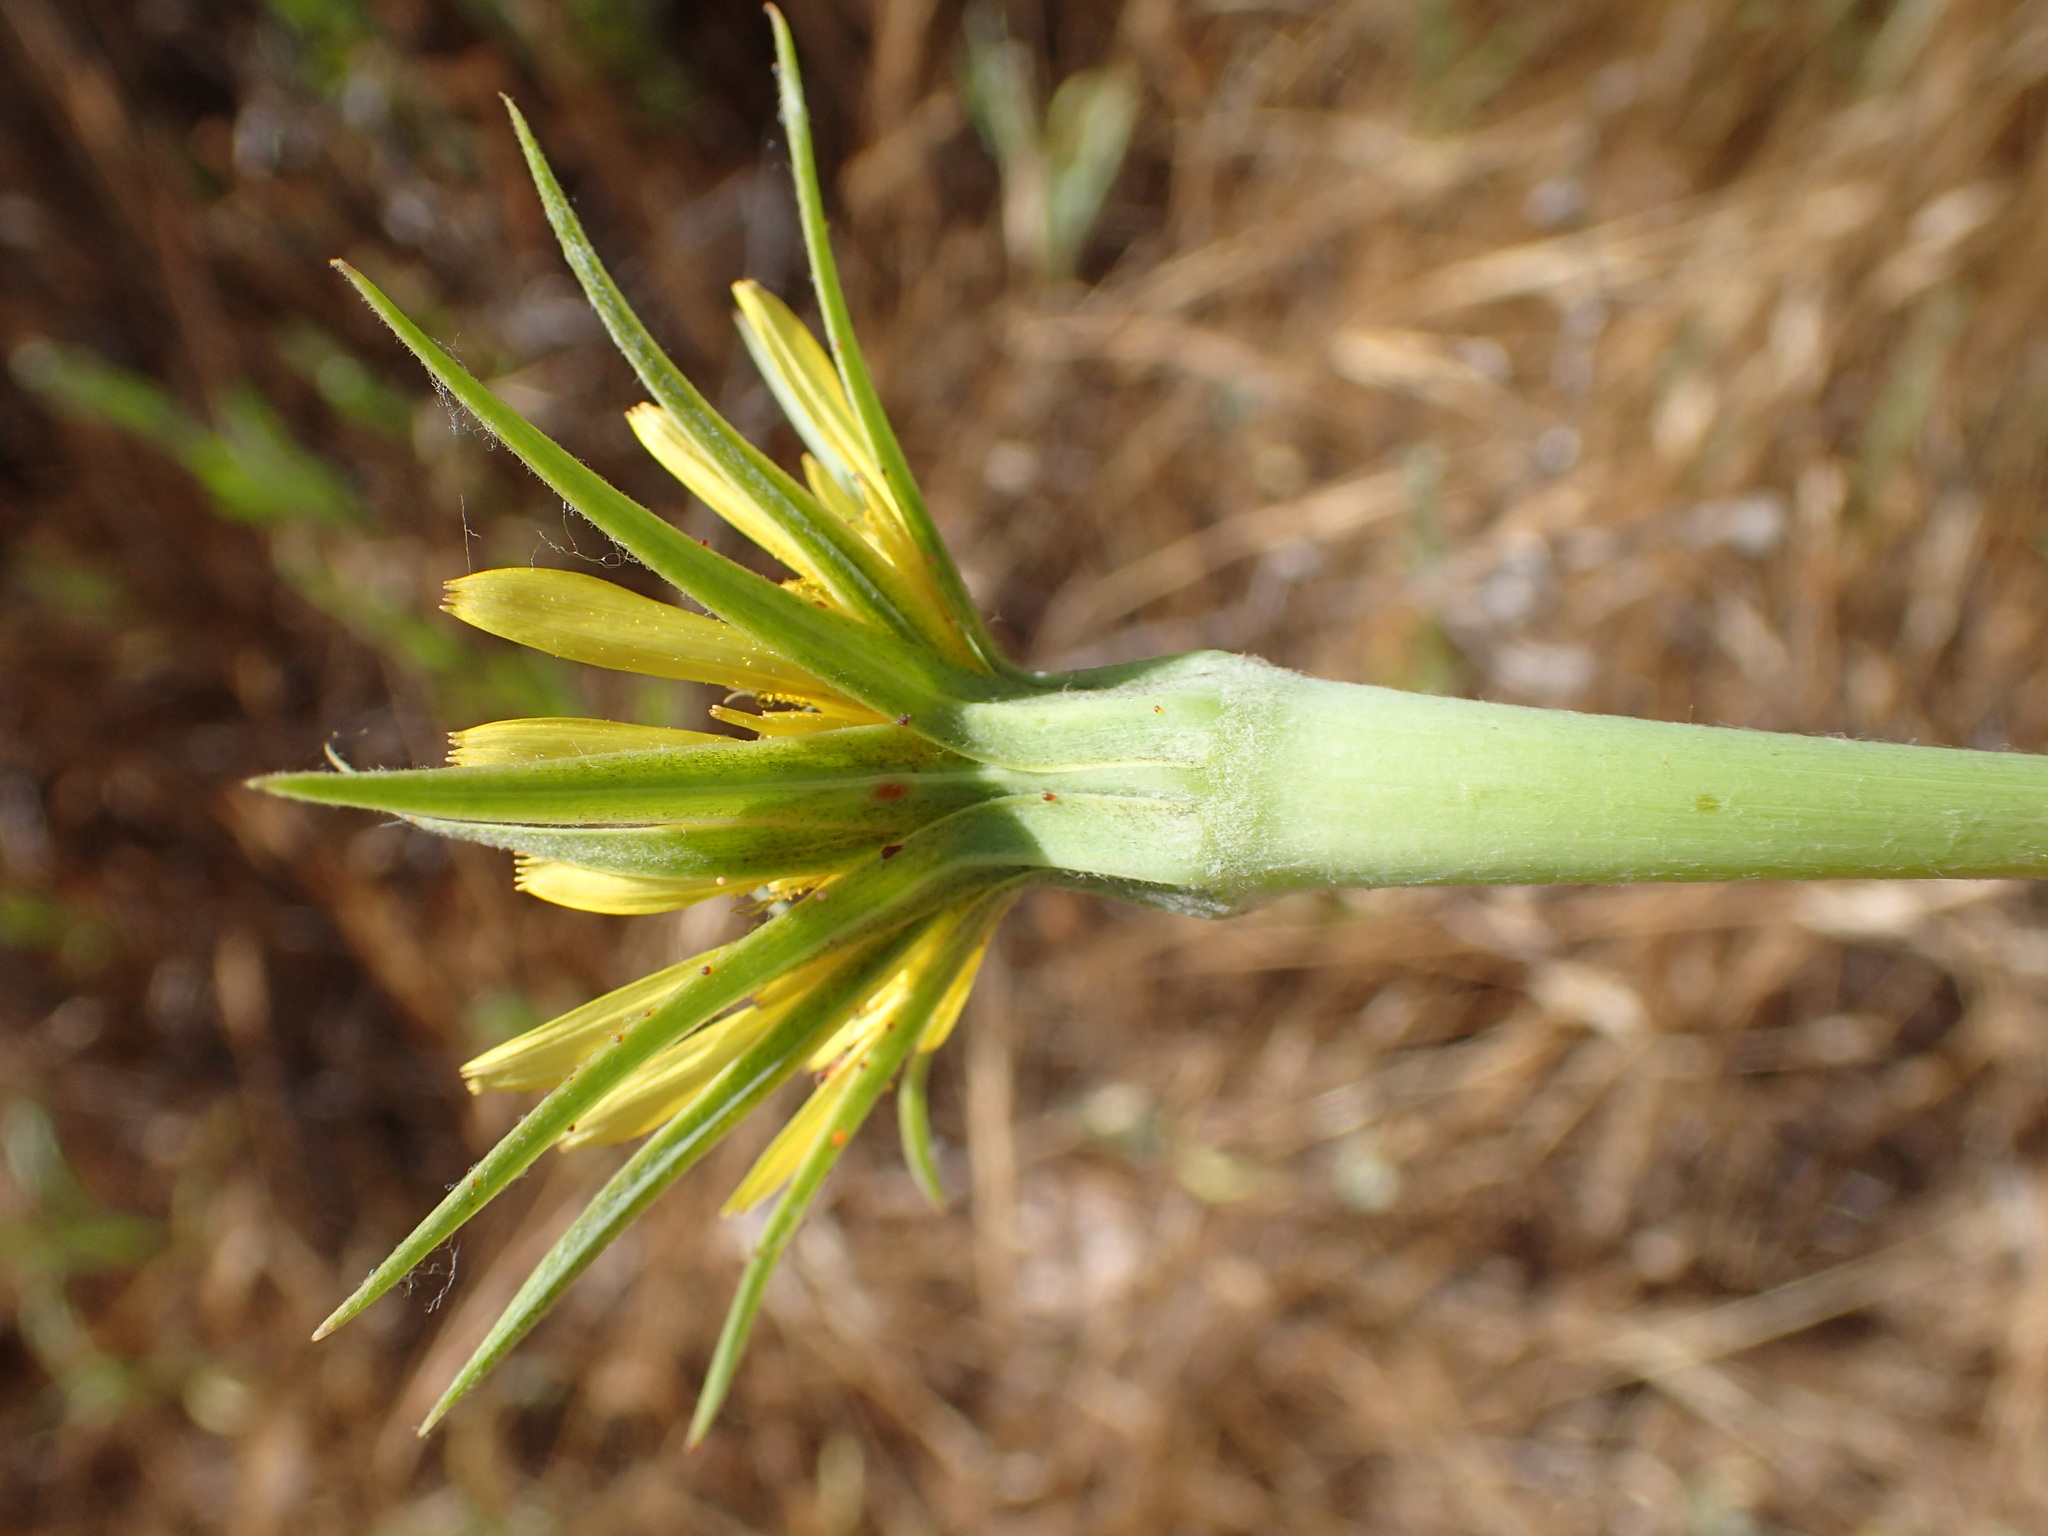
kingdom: Plantae
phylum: Tracheophyta
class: Magnoliopsida
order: Asterales
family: Asteraceae
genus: Tragopogon
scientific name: Tragopogon dubius
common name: Yellow salsify
